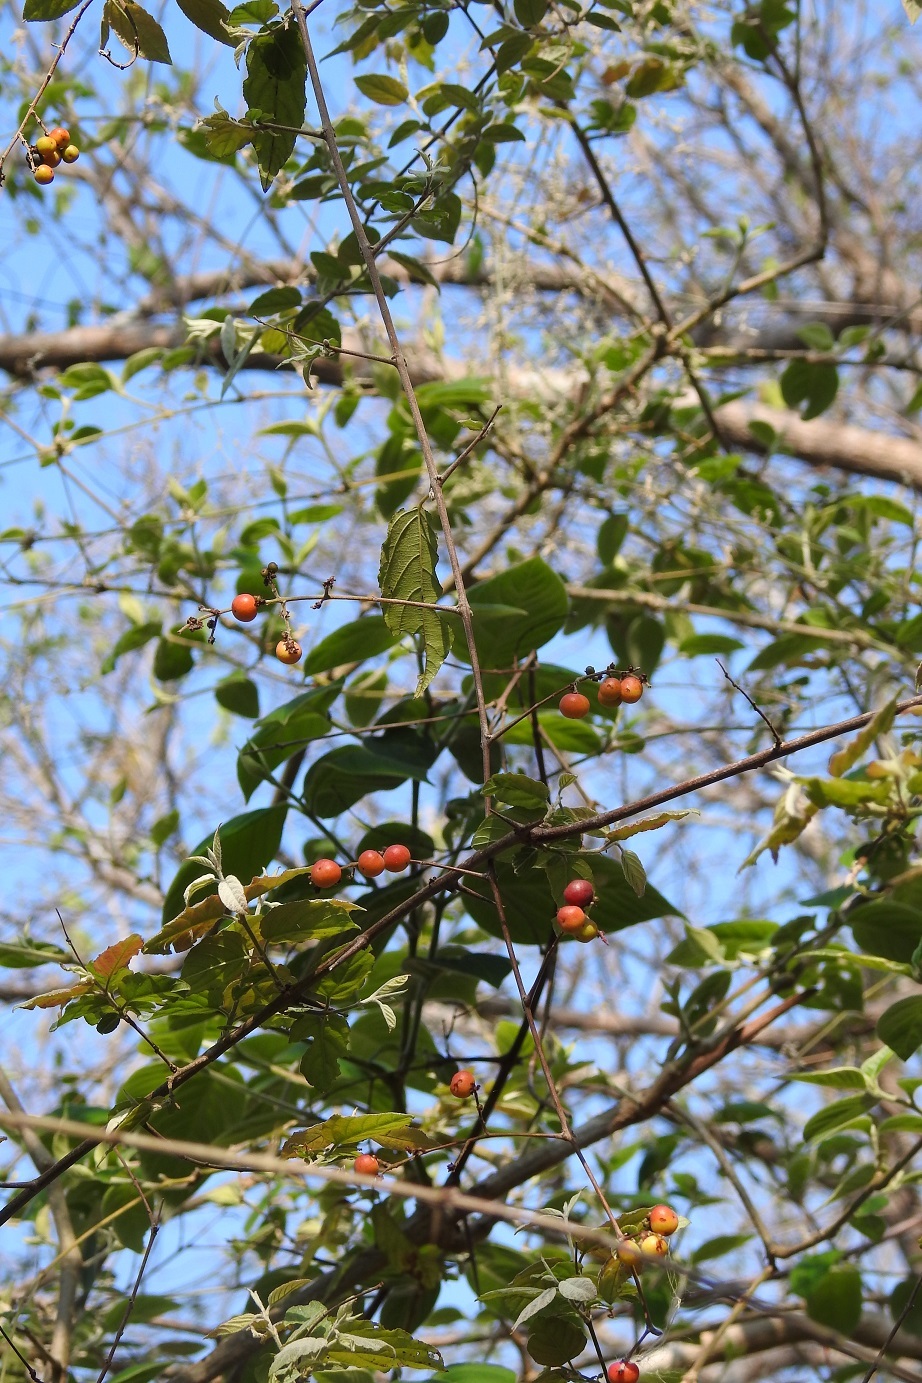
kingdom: Plantae
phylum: Tracheophyta
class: Magnoliopsida
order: Rosales
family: Rhamnaceae
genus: Sageretia
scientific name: Sageretia elegans
